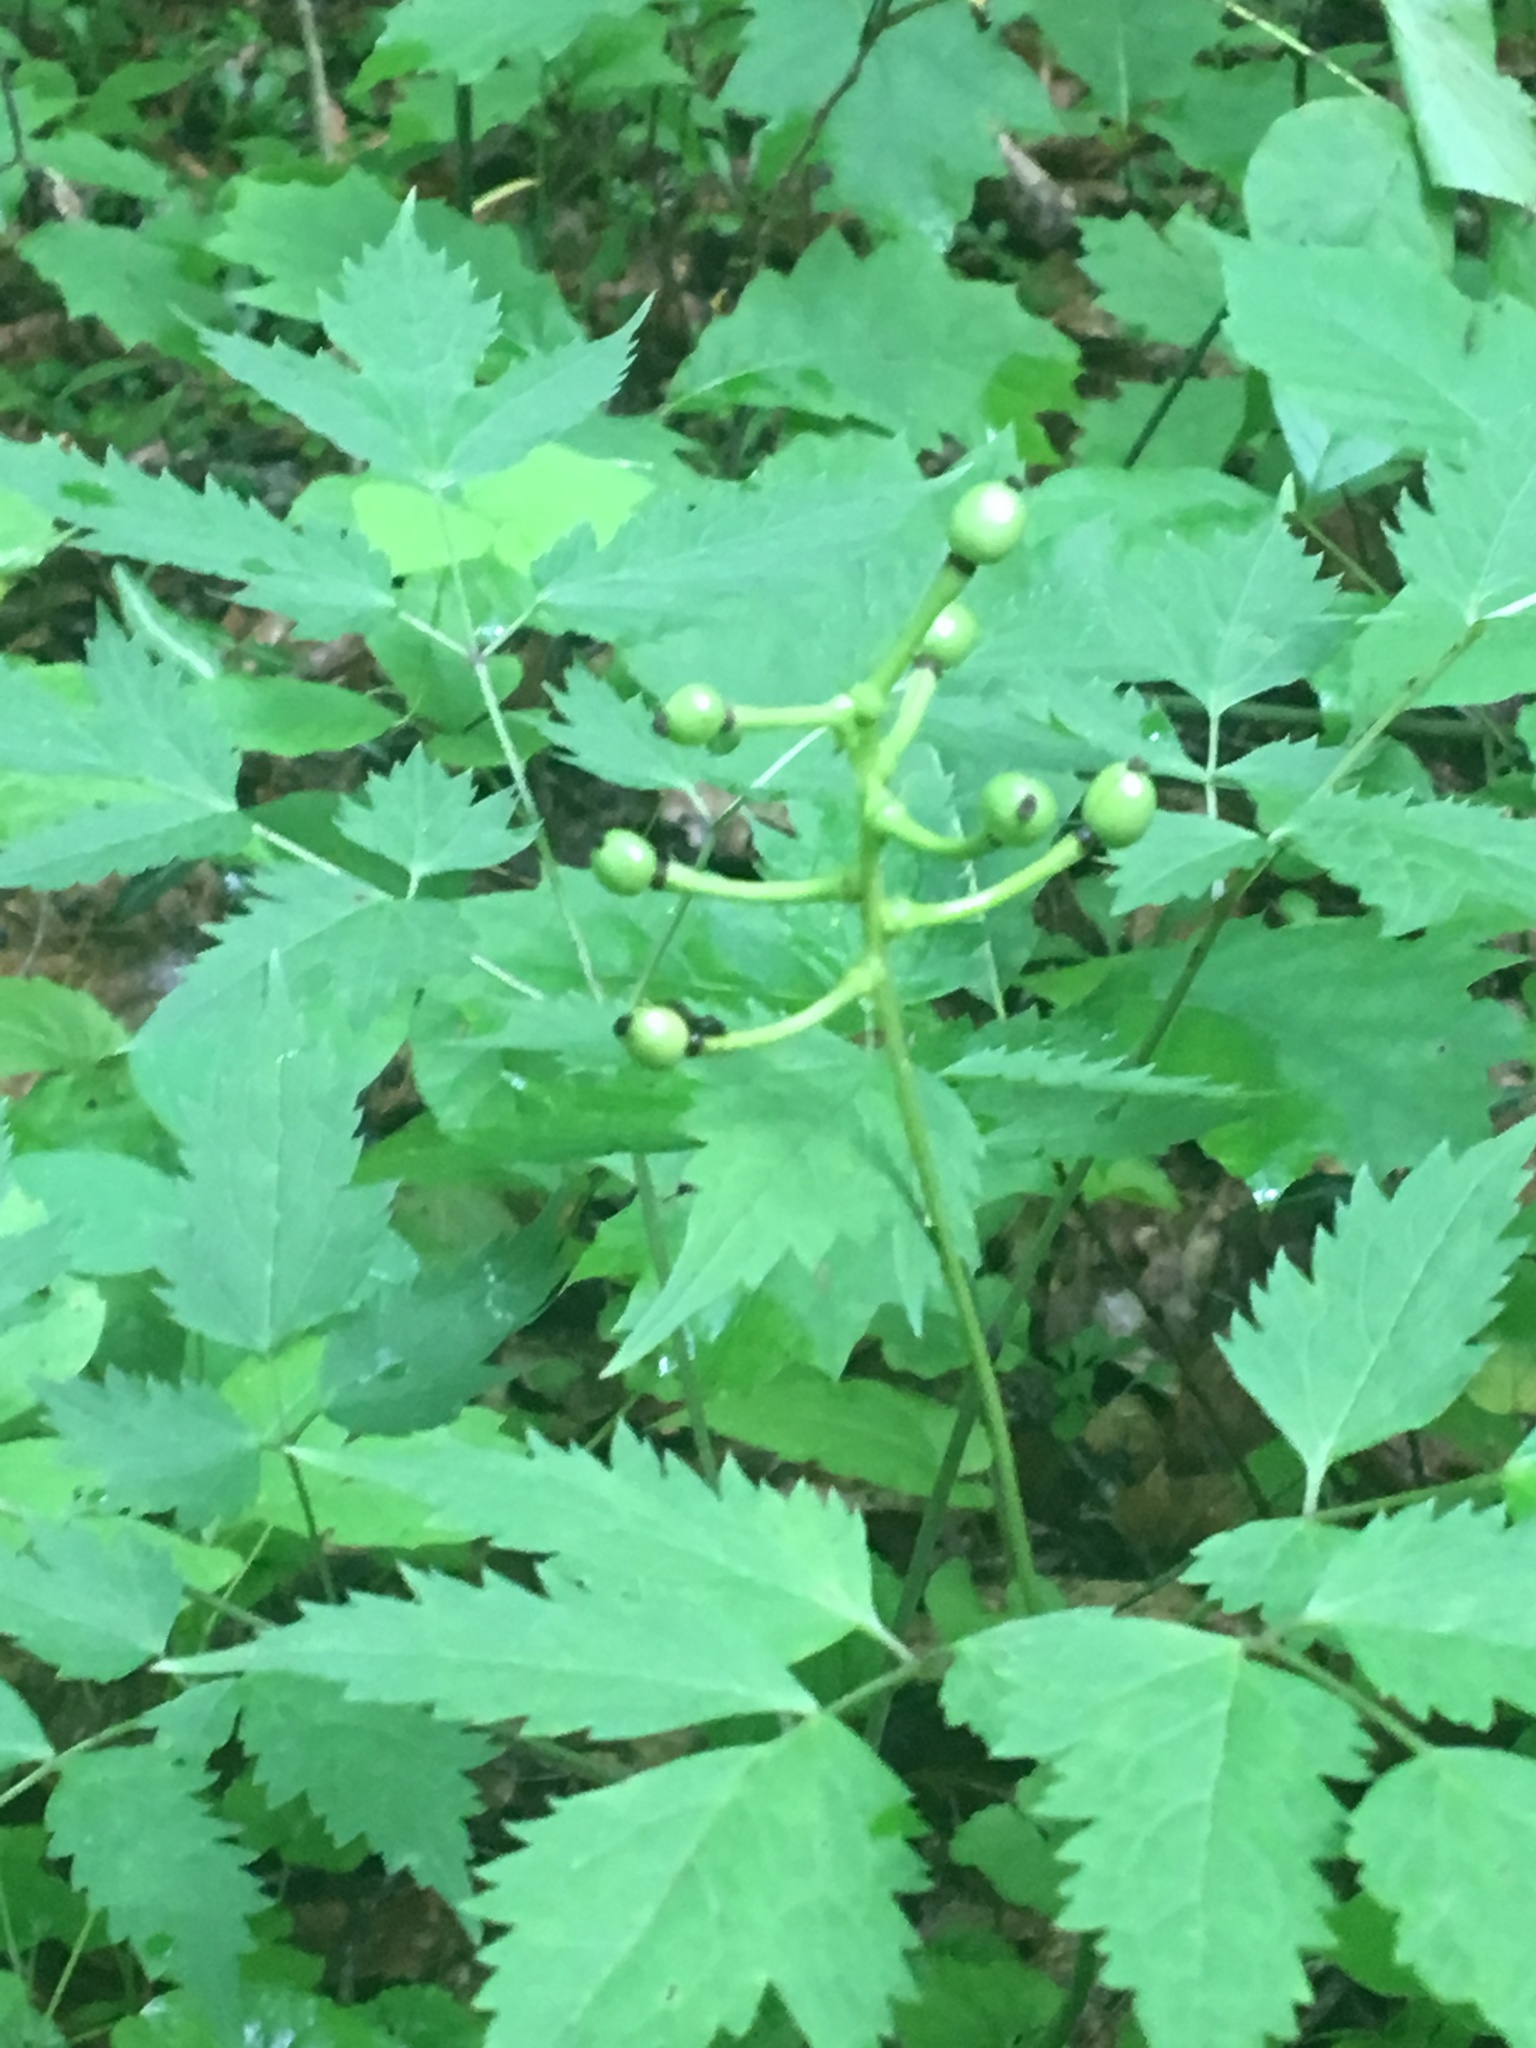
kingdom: Plantae
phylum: Tracheophyta
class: Magnoliopsida
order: Ranunculales
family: Ranunculaceae
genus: Actaea
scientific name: Actaea pachypoda
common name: Doll's-eyes
